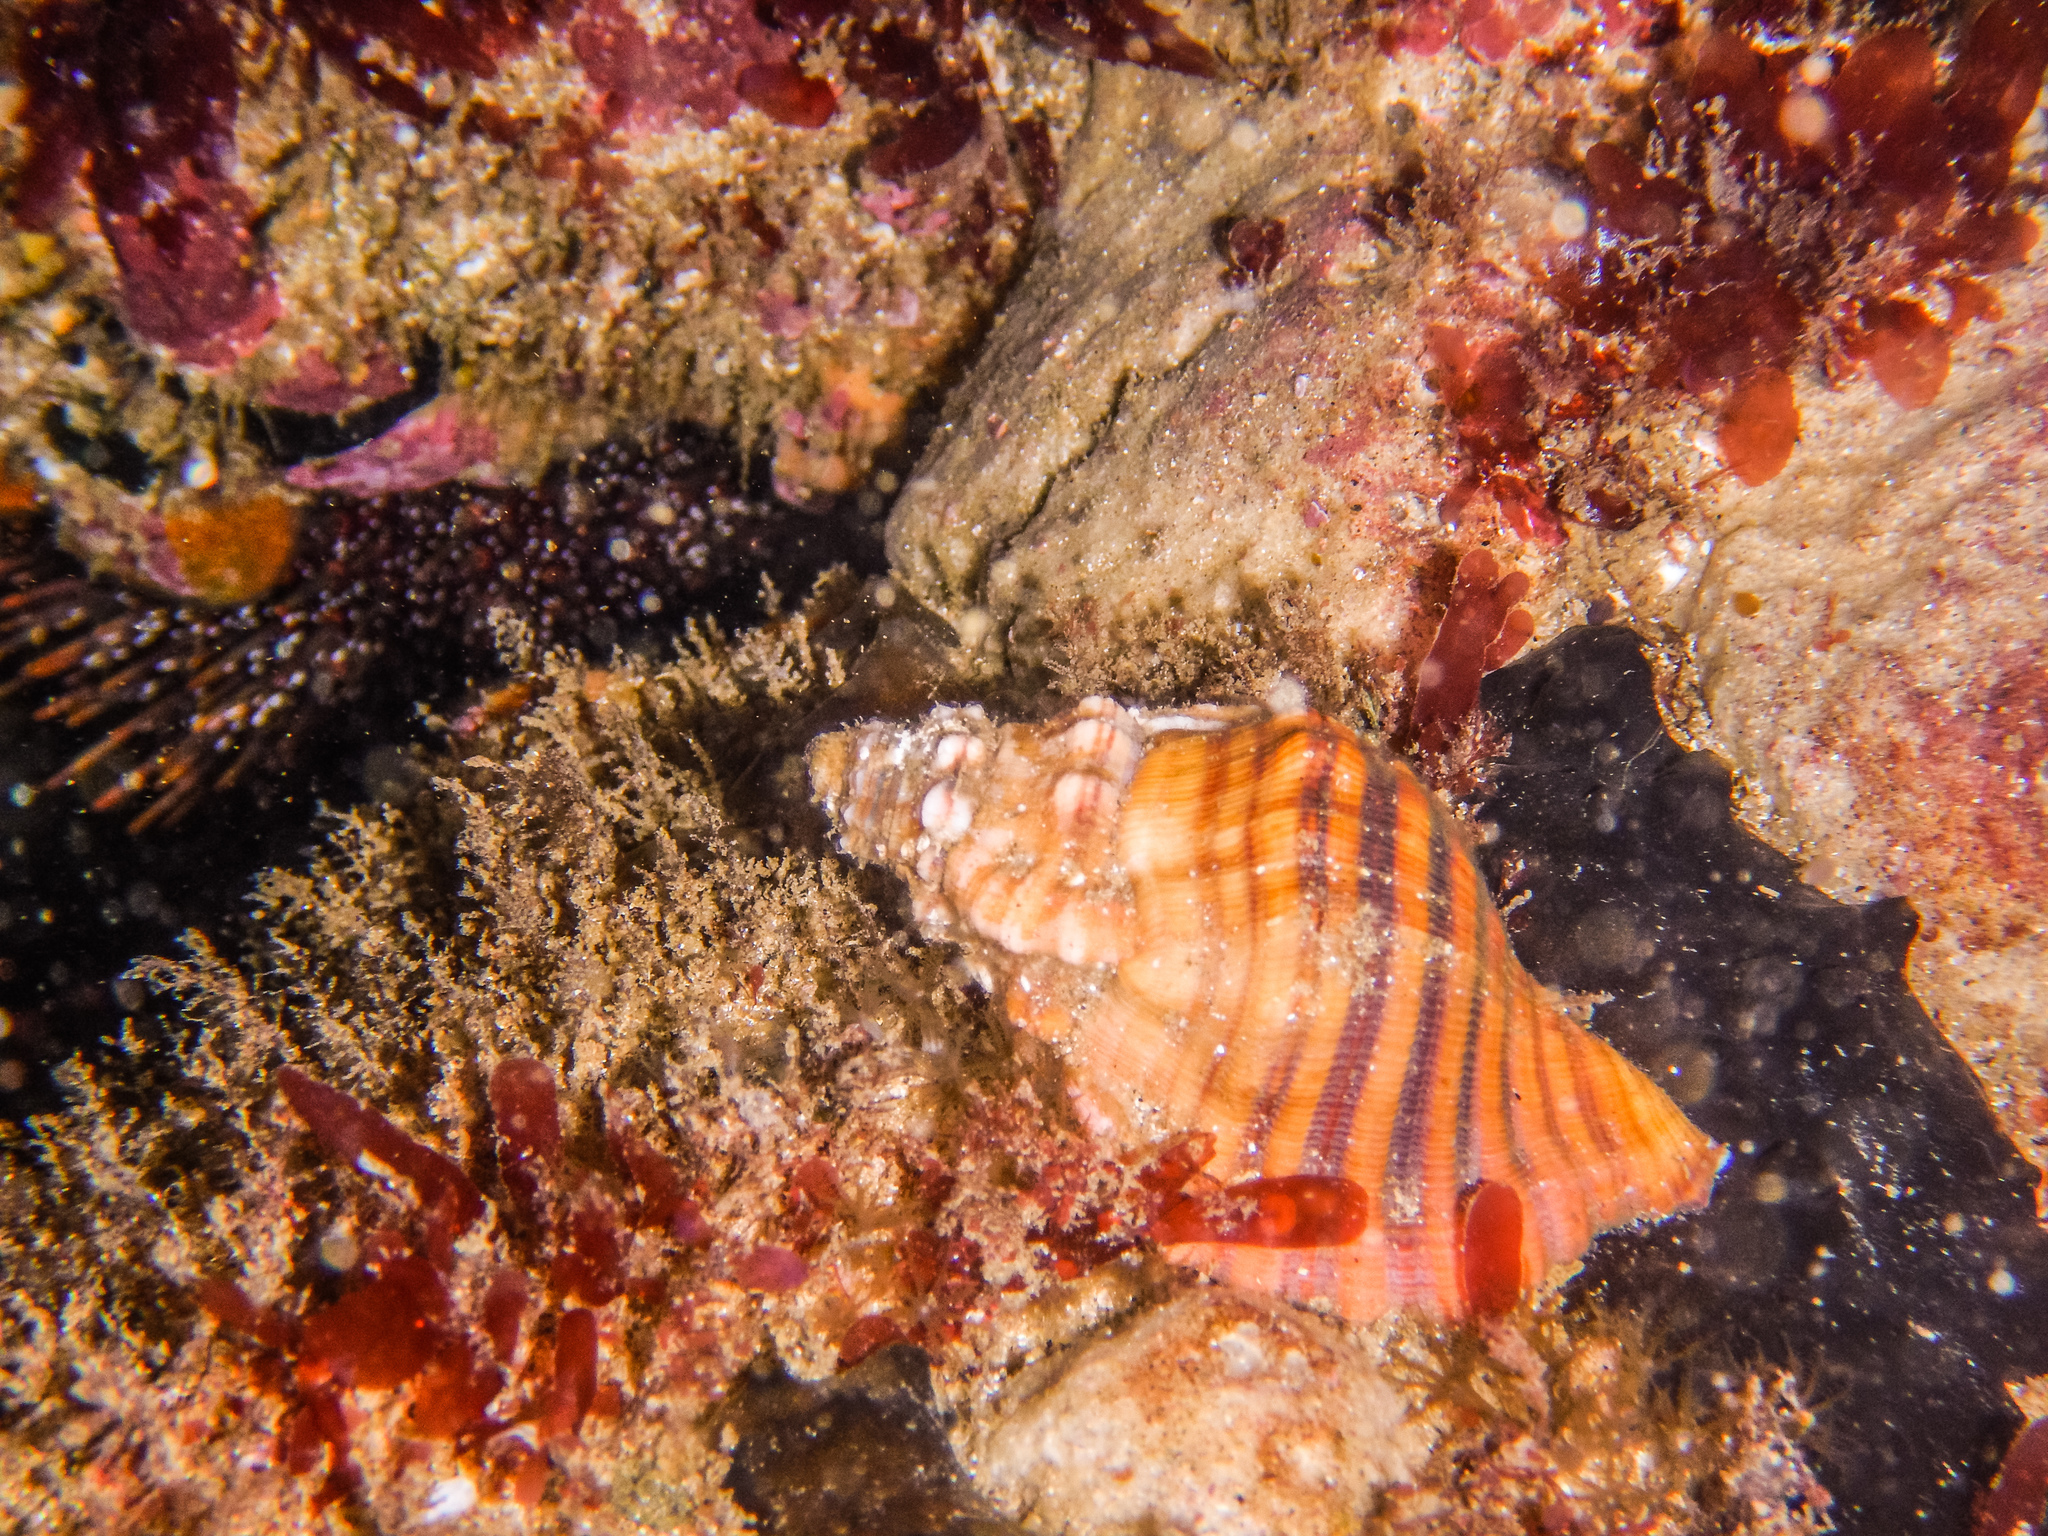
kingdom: Animalia
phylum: Mollusca
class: Gastropoda
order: Littorinimorpha
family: Cymatiidae
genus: Cabestana
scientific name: Cabestana spengleri
